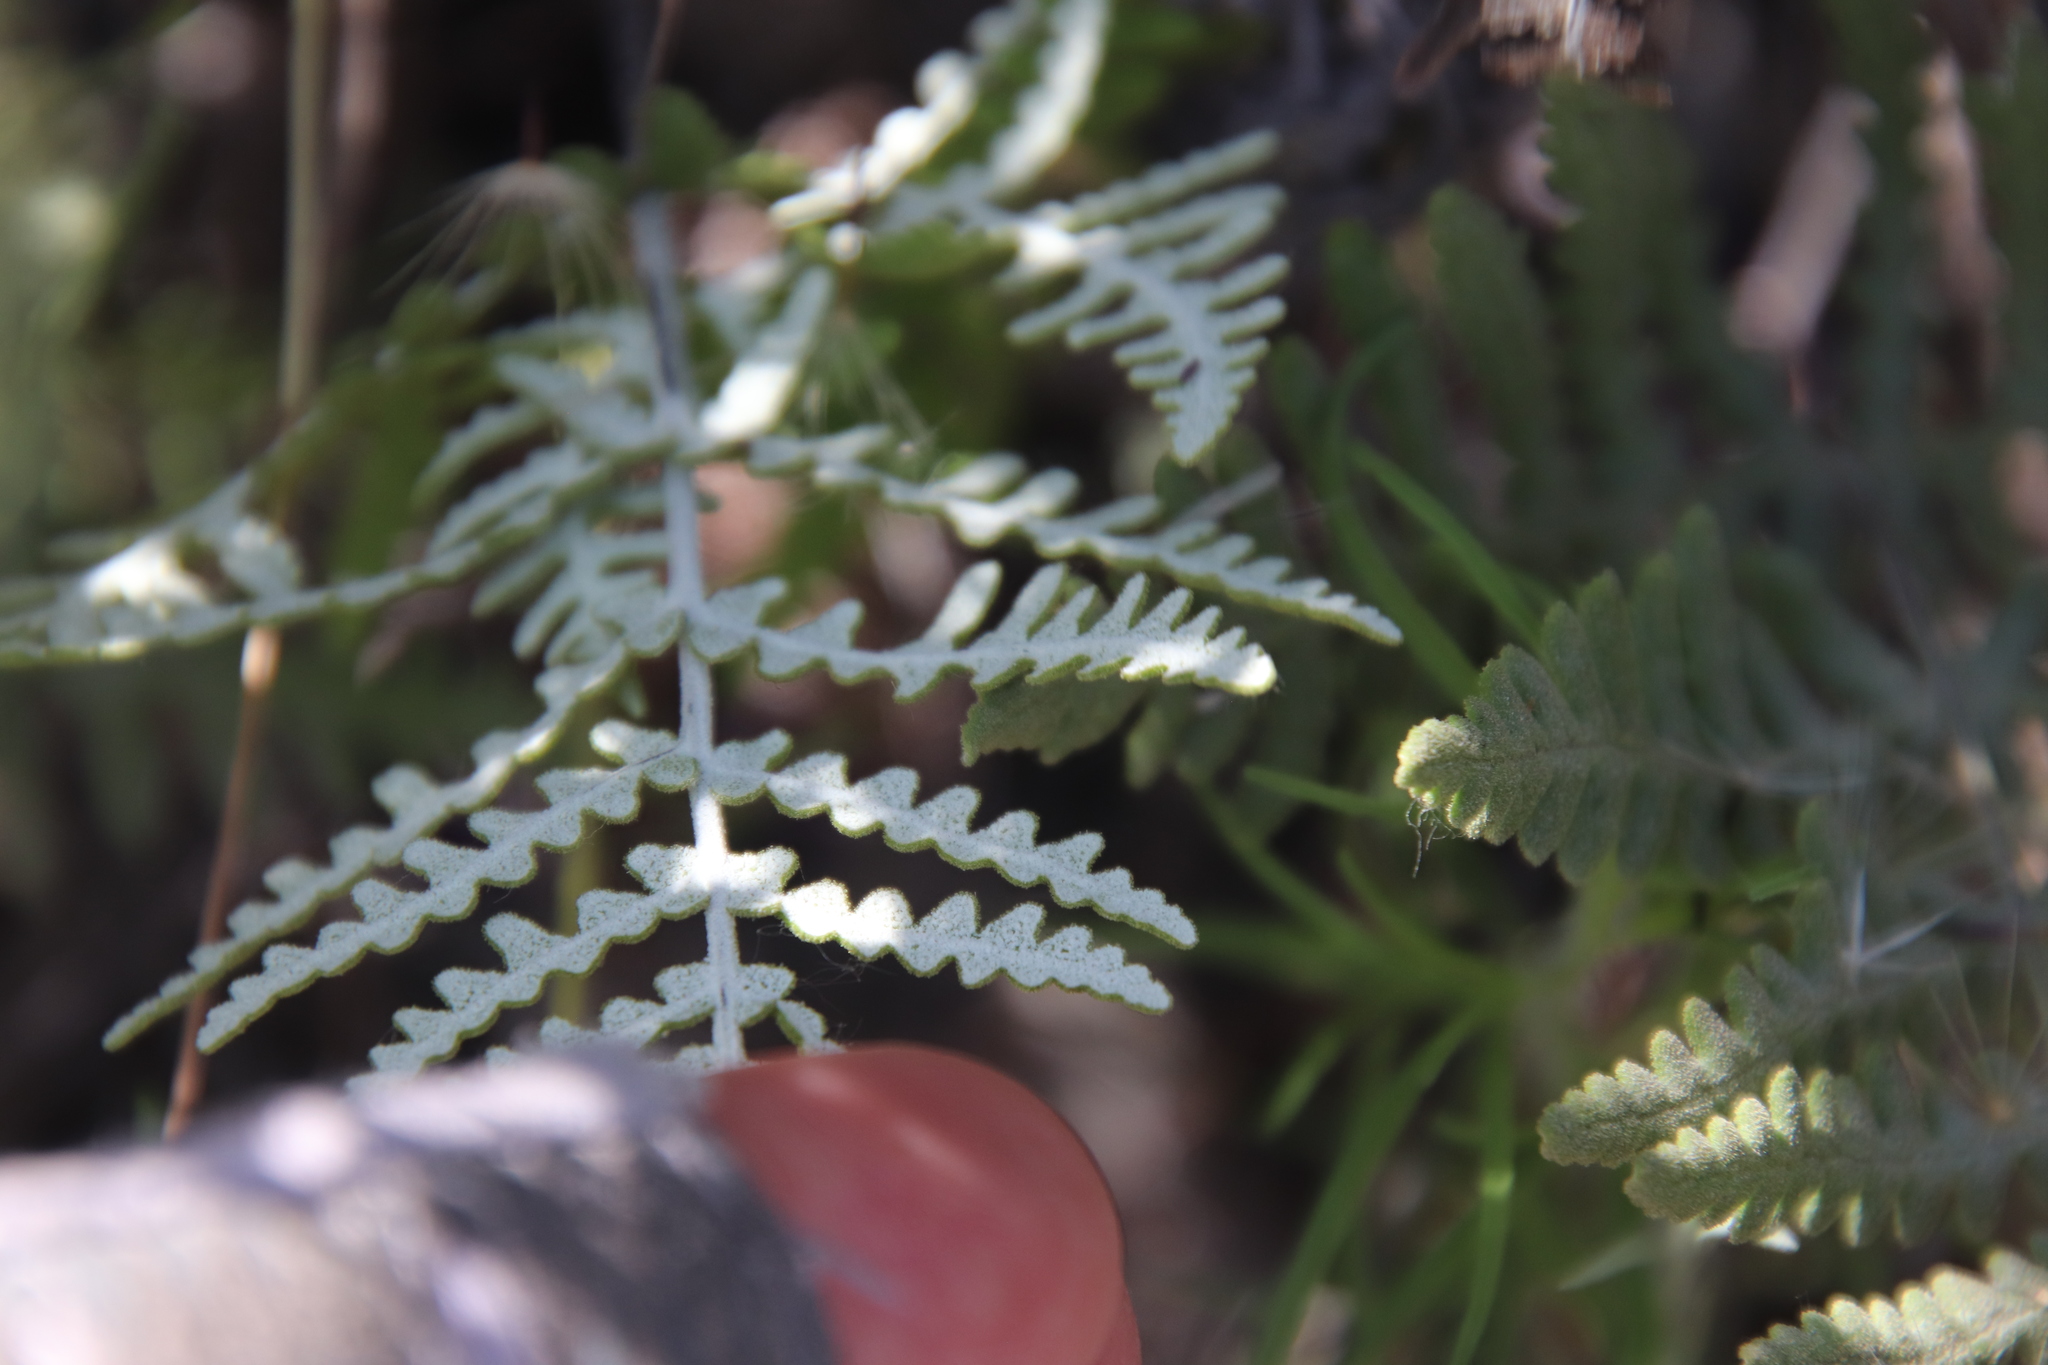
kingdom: Plantae
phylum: Tracheophyta
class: Polypodiopsida
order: Polypodiales
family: Pteridaceae
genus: Pentagramma
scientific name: Pentagramma glanduloviscida
